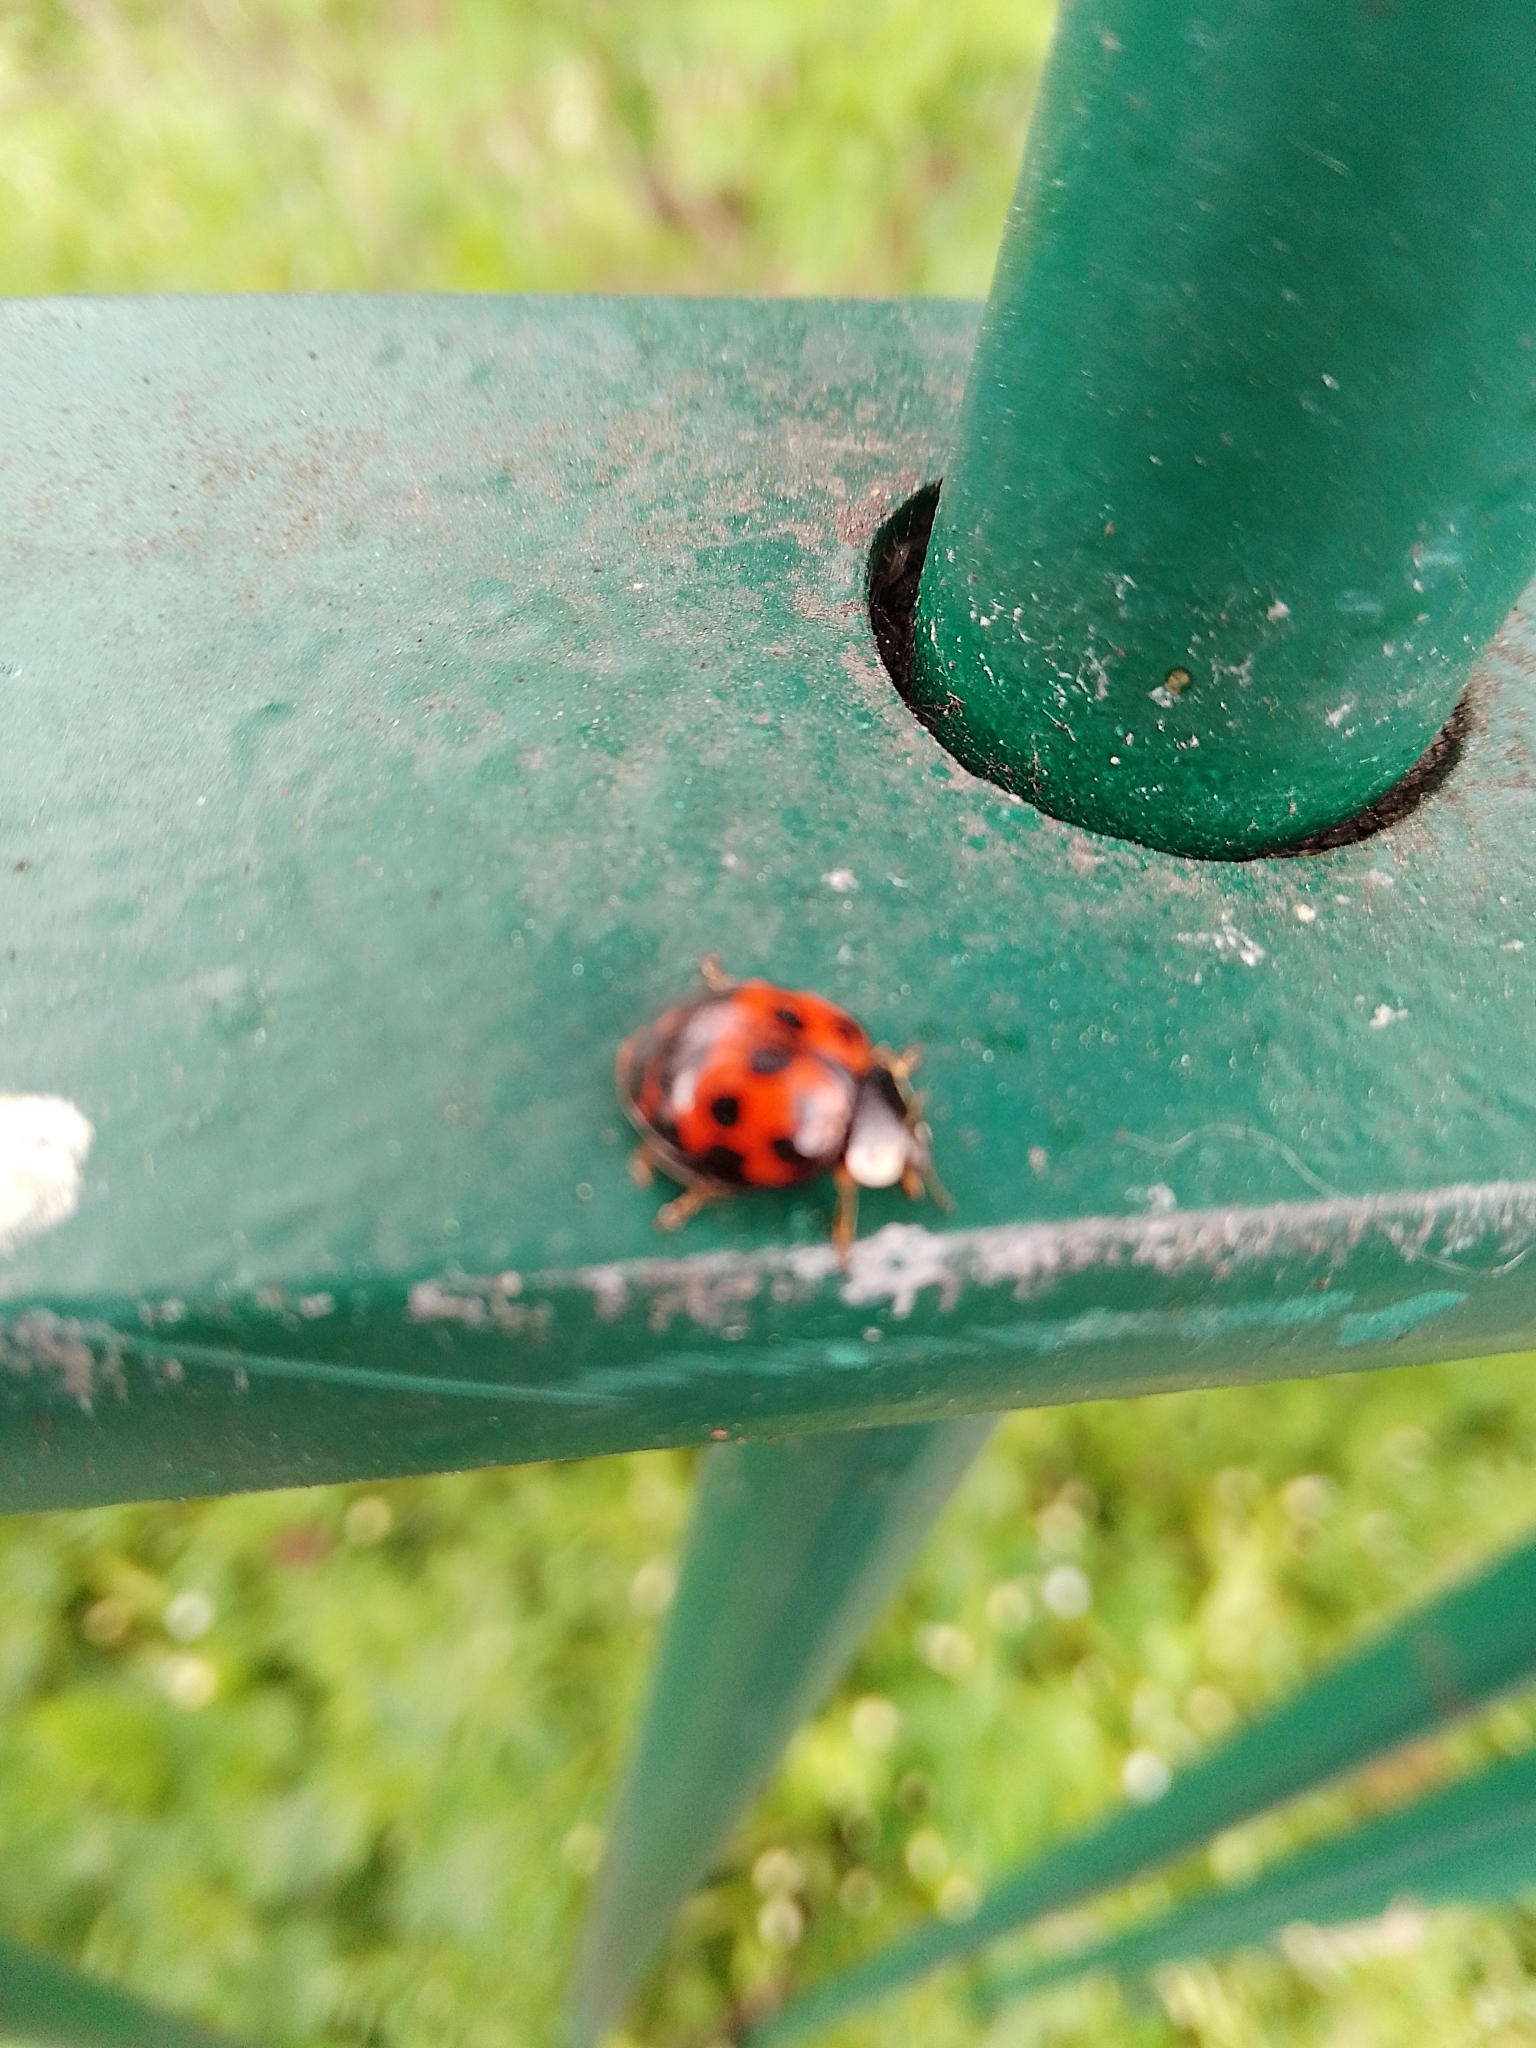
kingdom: Animalia
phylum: Arthropoda
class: Insecta
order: Coleoptera
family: Coccinellidae
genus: Harmonia
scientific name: Harmonia axyridis
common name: Harlequin ladybird
